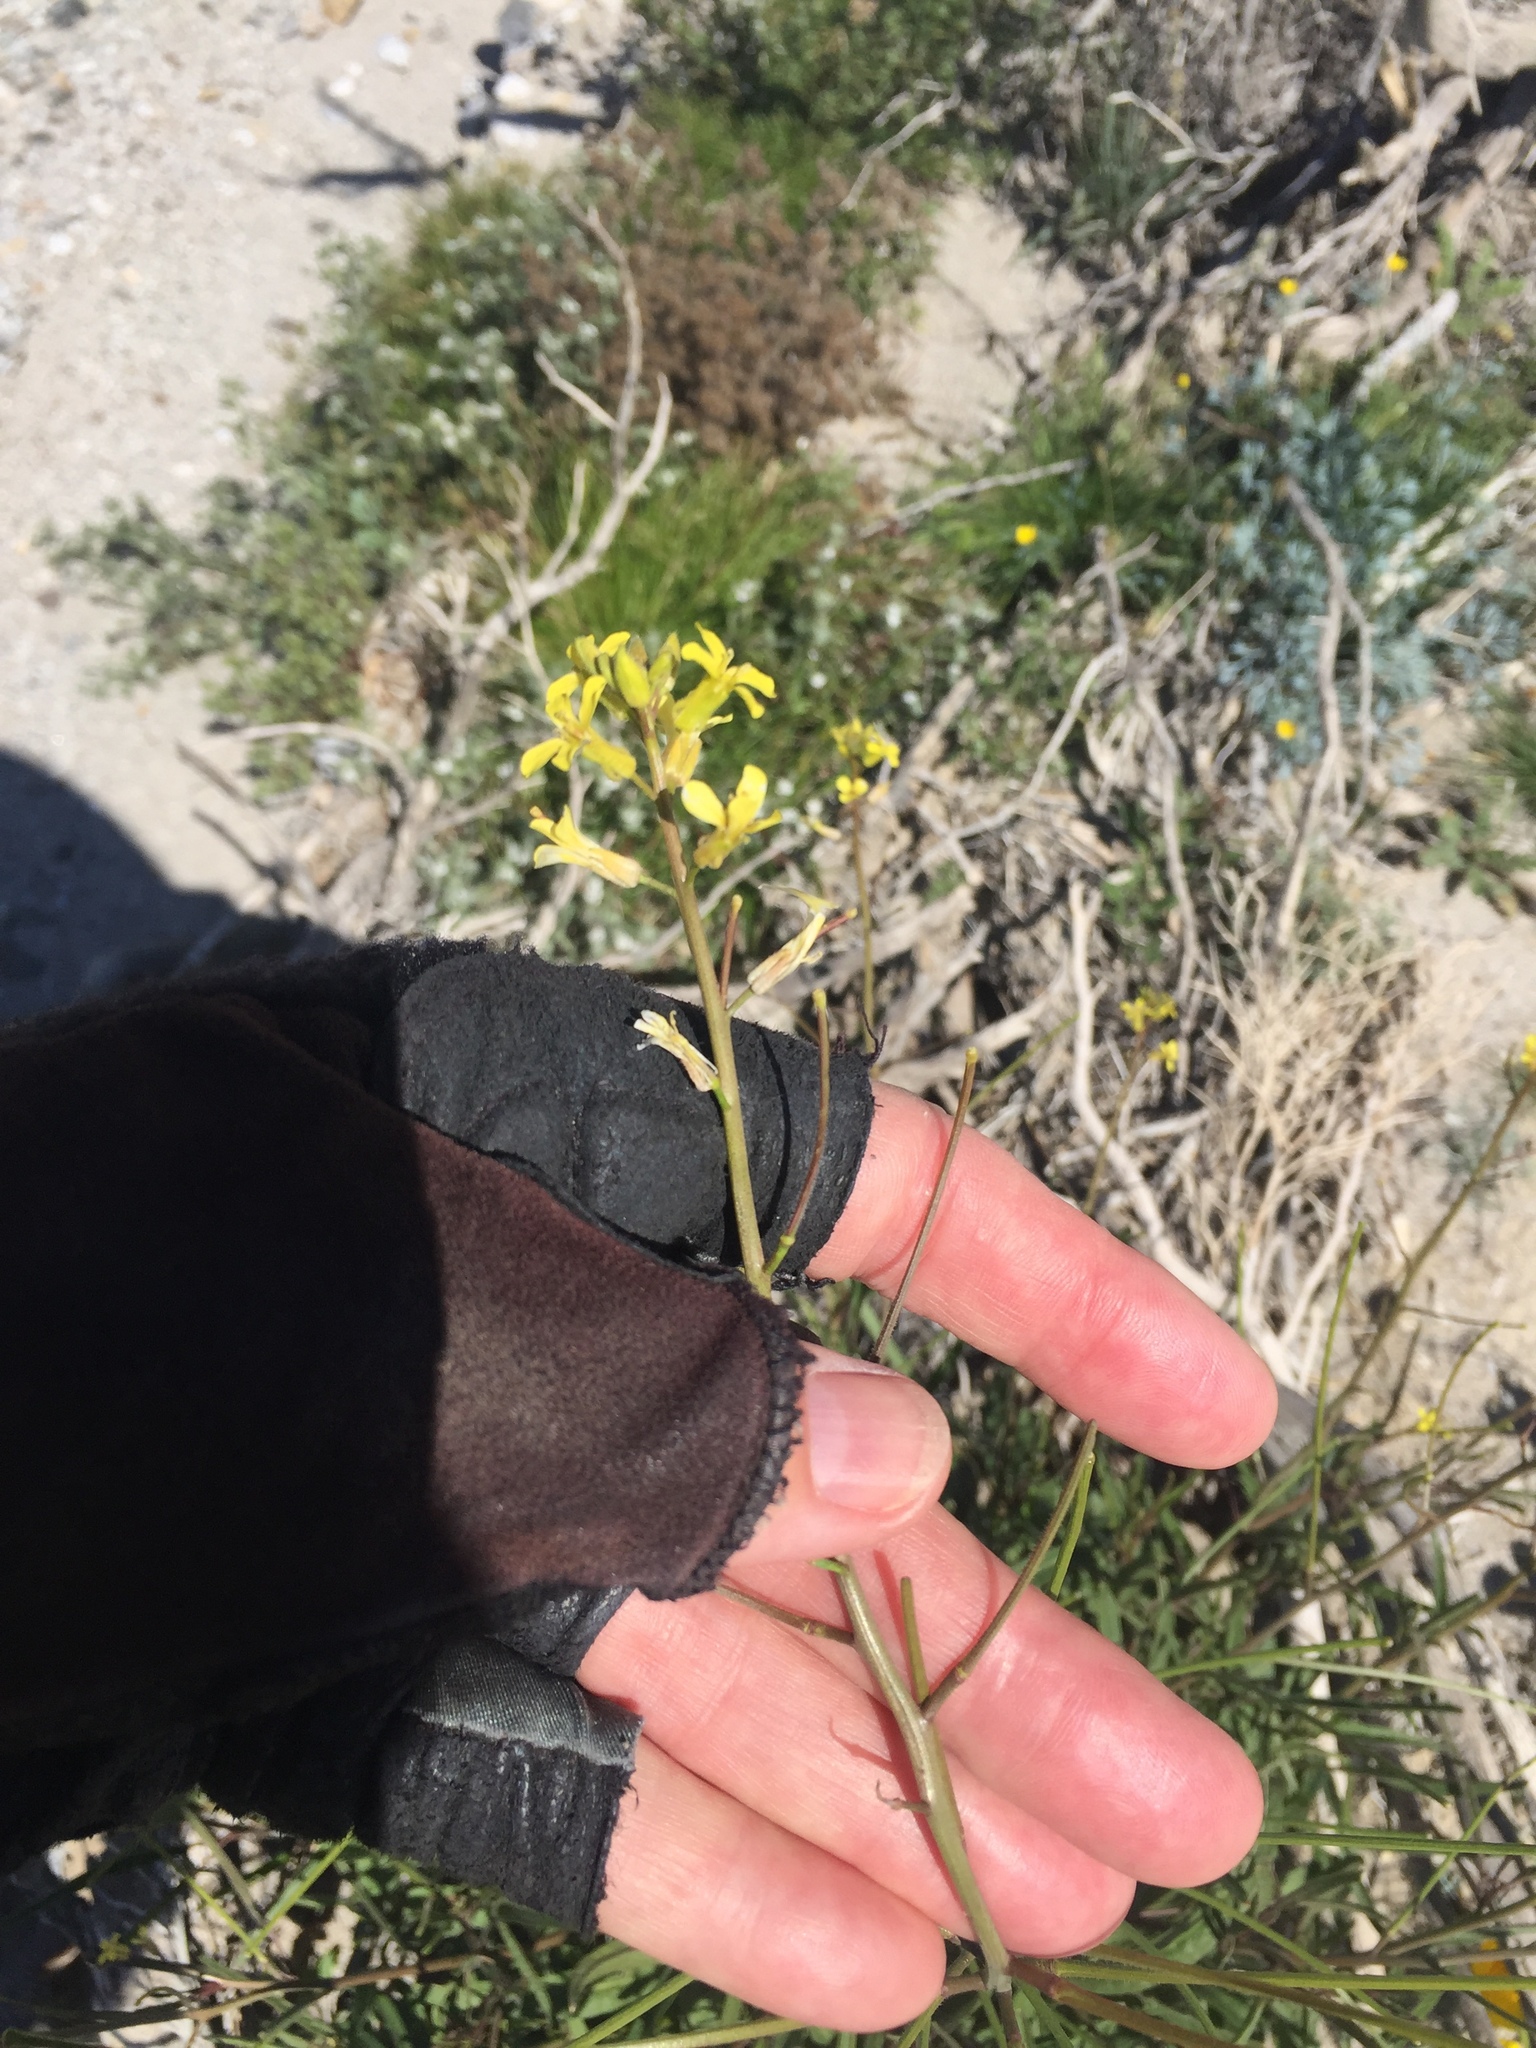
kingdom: Plantae
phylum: Tracheophyta
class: Magnoliopsida
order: Brassicales
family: Brassicaceae
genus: Sisymbrium
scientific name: Sisymbrium orientale
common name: Eastern rocket
